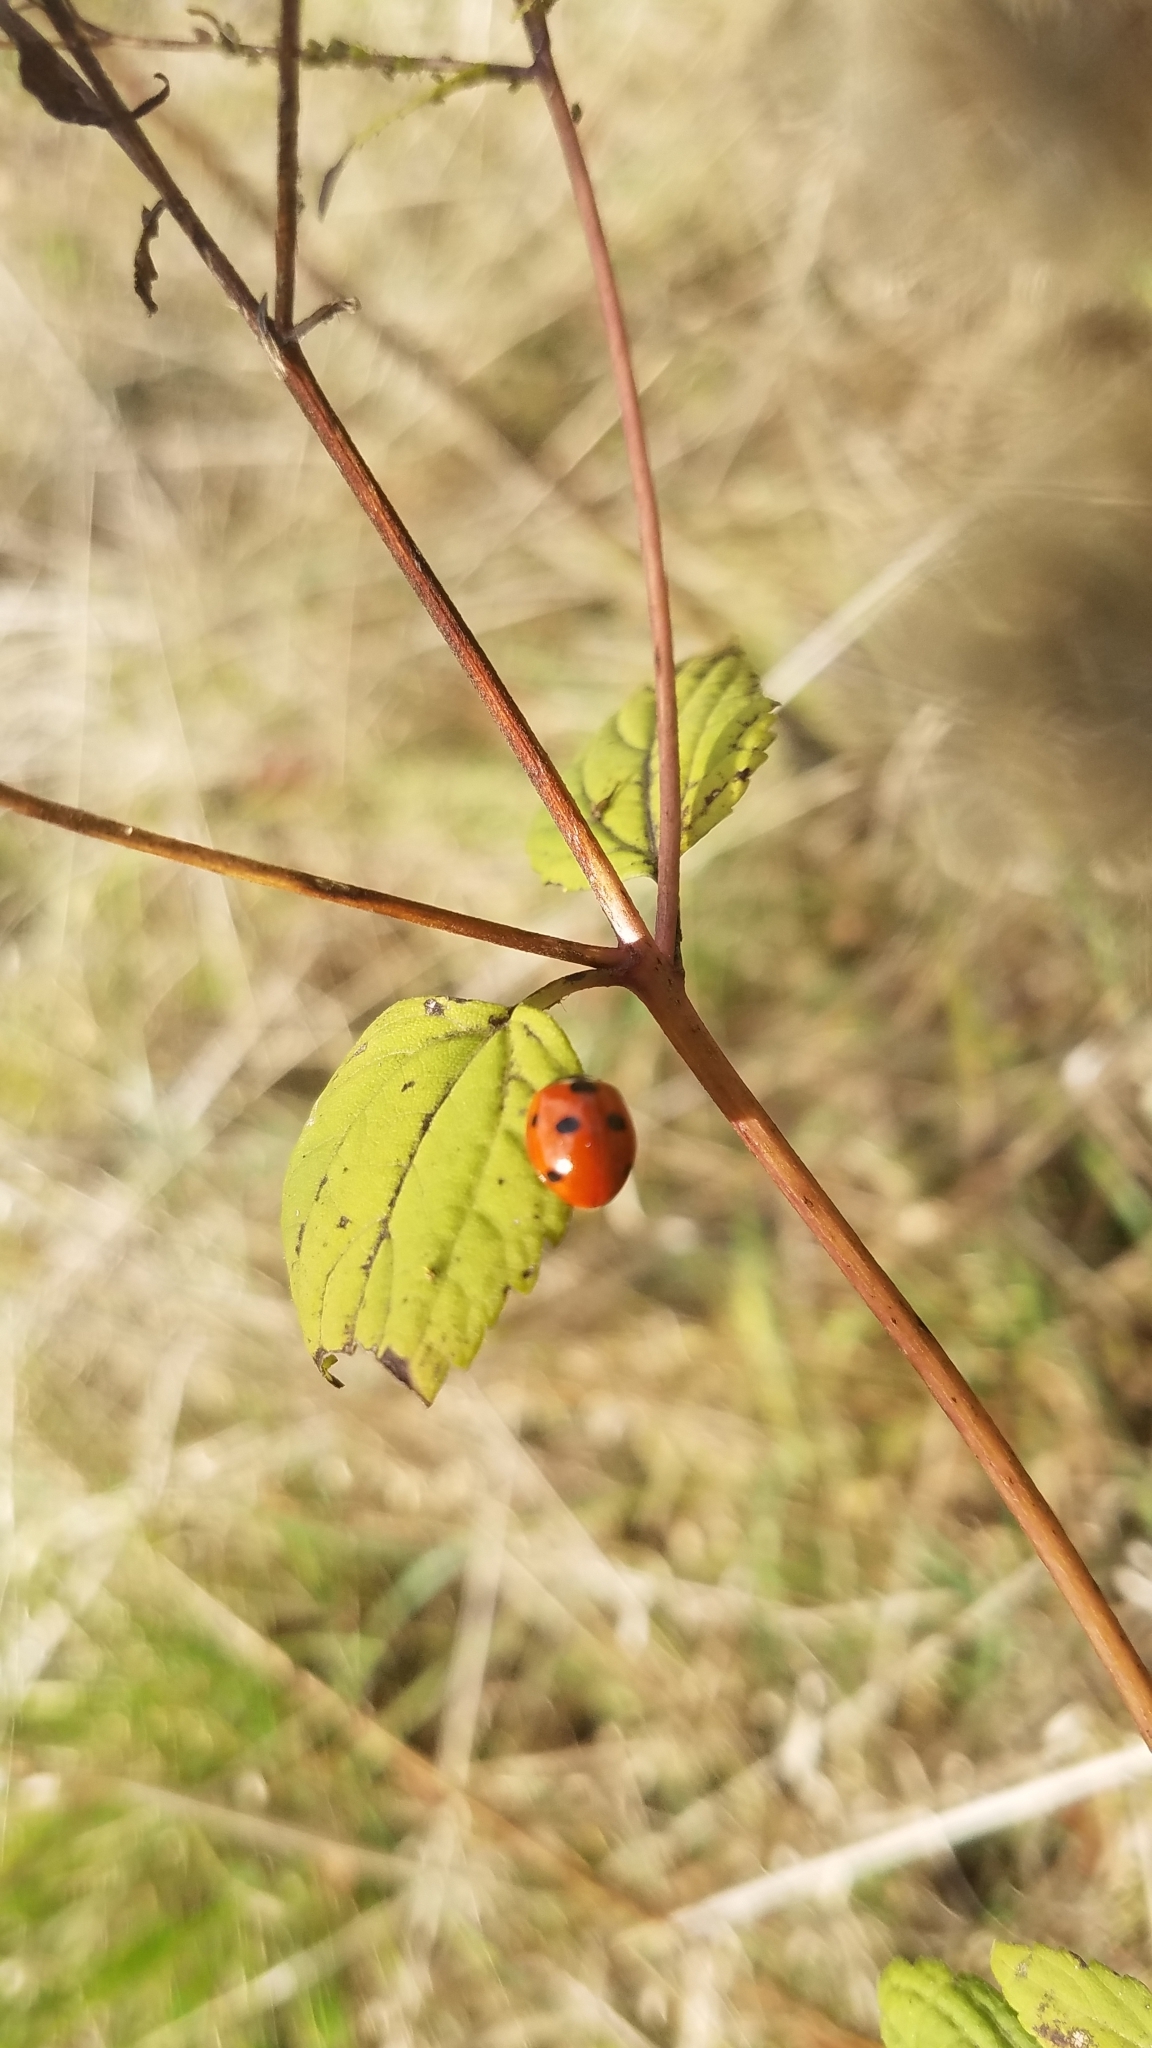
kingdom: Animalia
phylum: Arthropoda
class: Insecta
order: Coleoptera
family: Coccinellidae
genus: Coccinella
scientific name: Coccinella septempunctata
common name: Sevenspotted lady beetle
